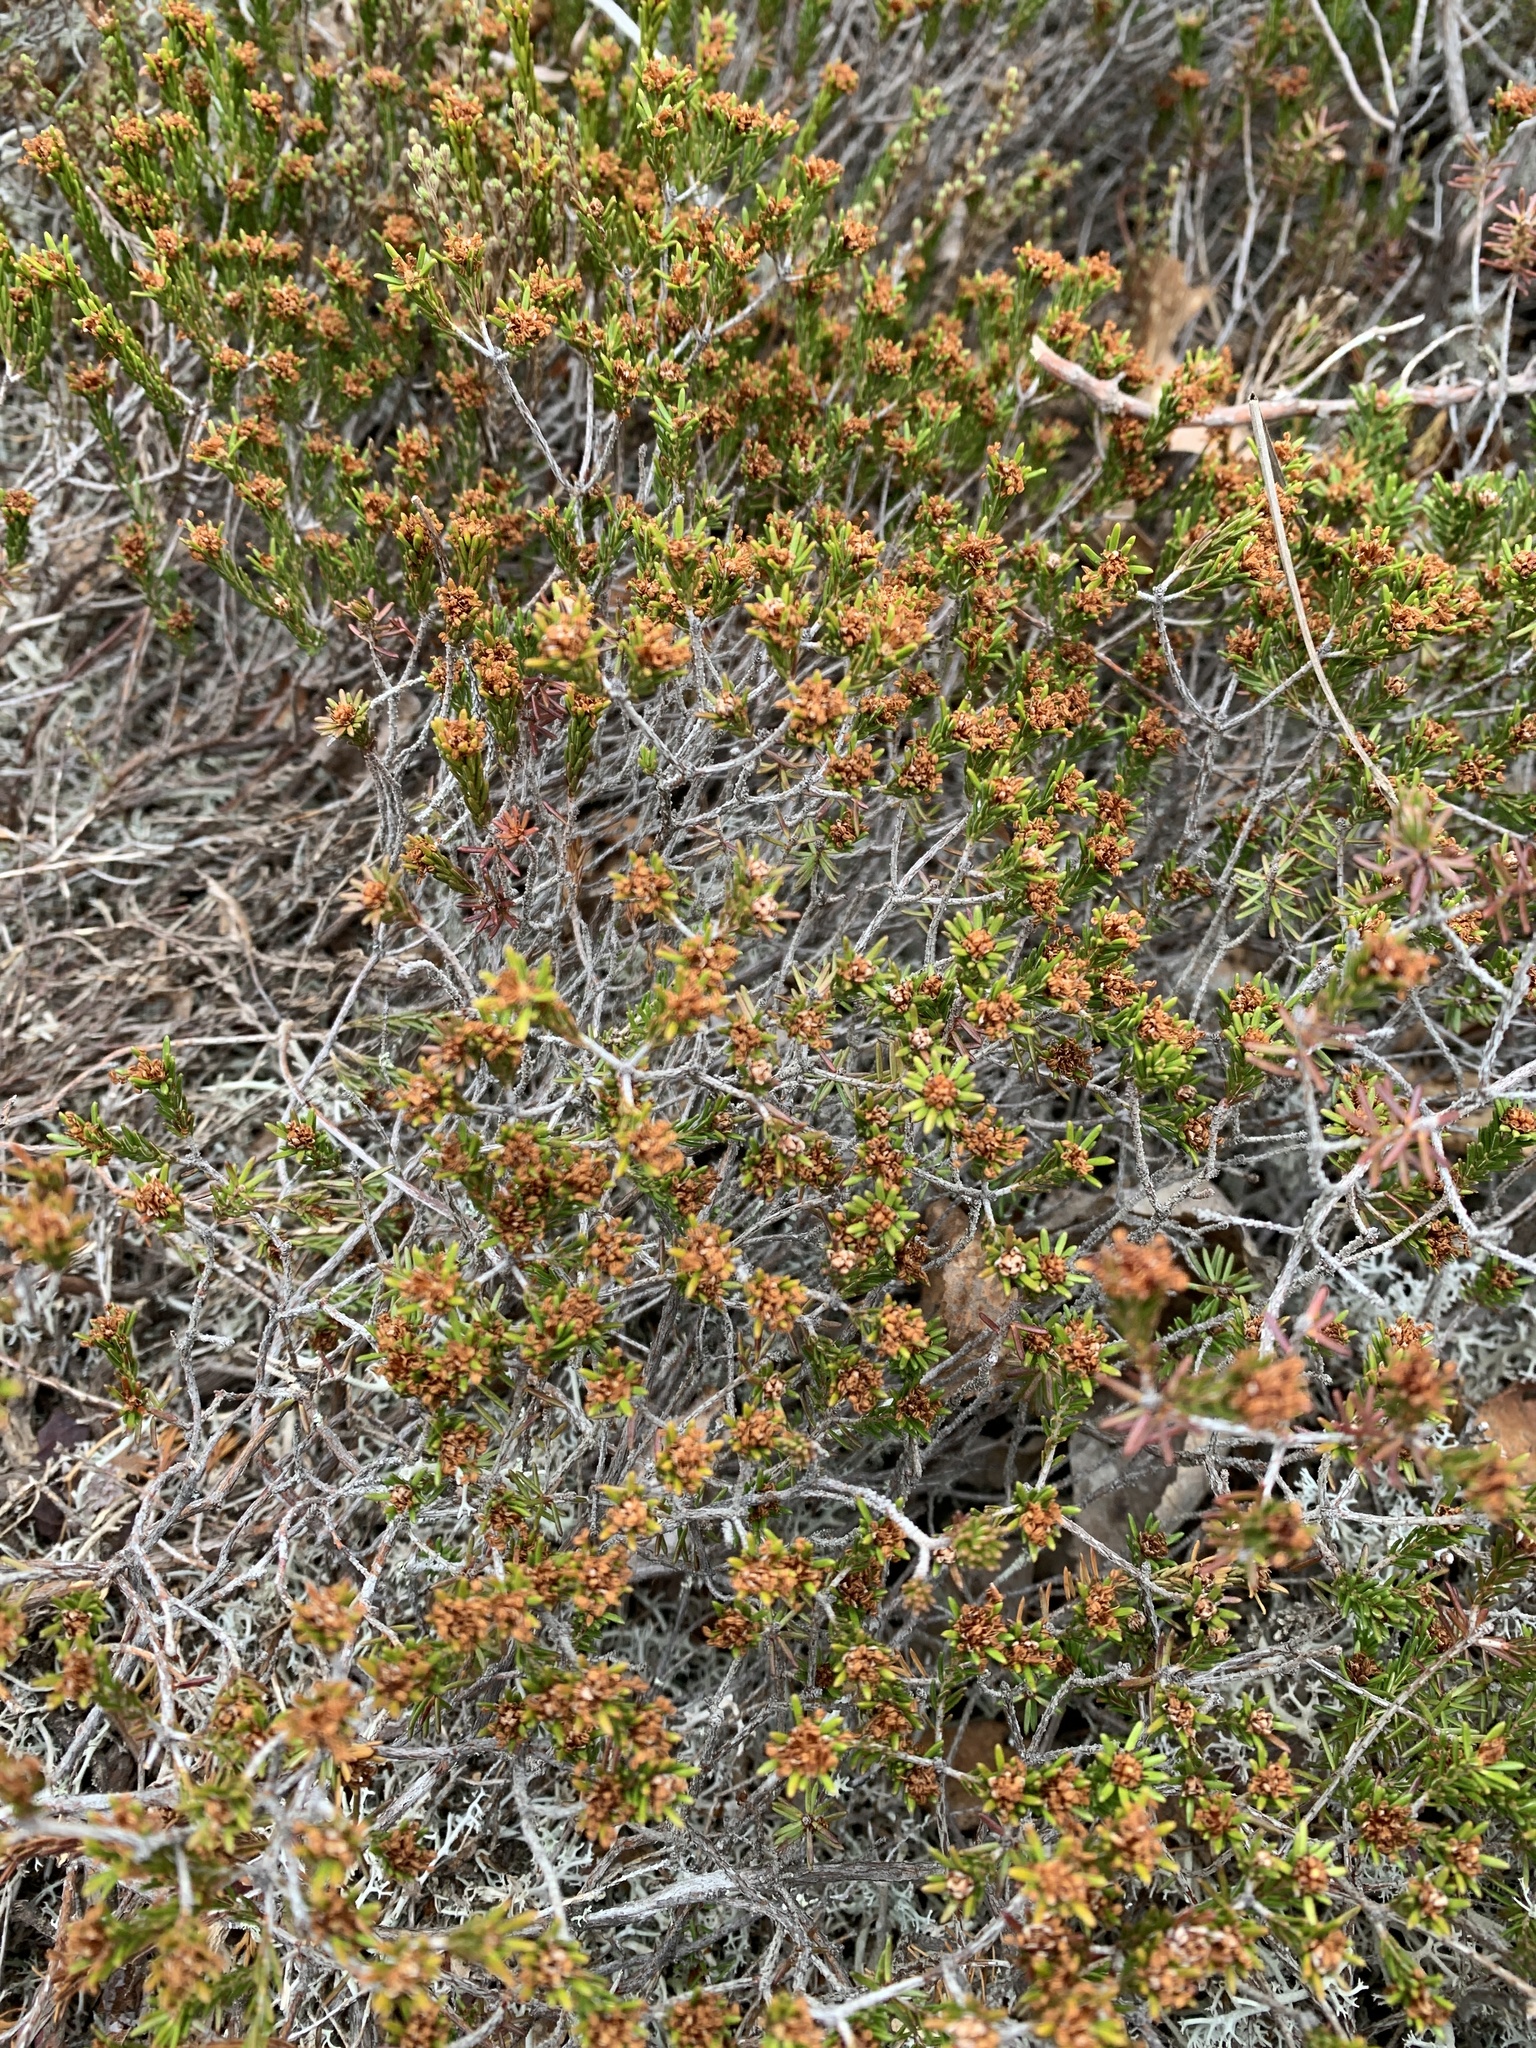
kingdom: Plantae
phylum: Tracheophyta
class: Magnoliopsida
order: Ericales
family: Ericaceae
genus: Corema
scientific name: Corema conradii
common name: Broom-crowberry
